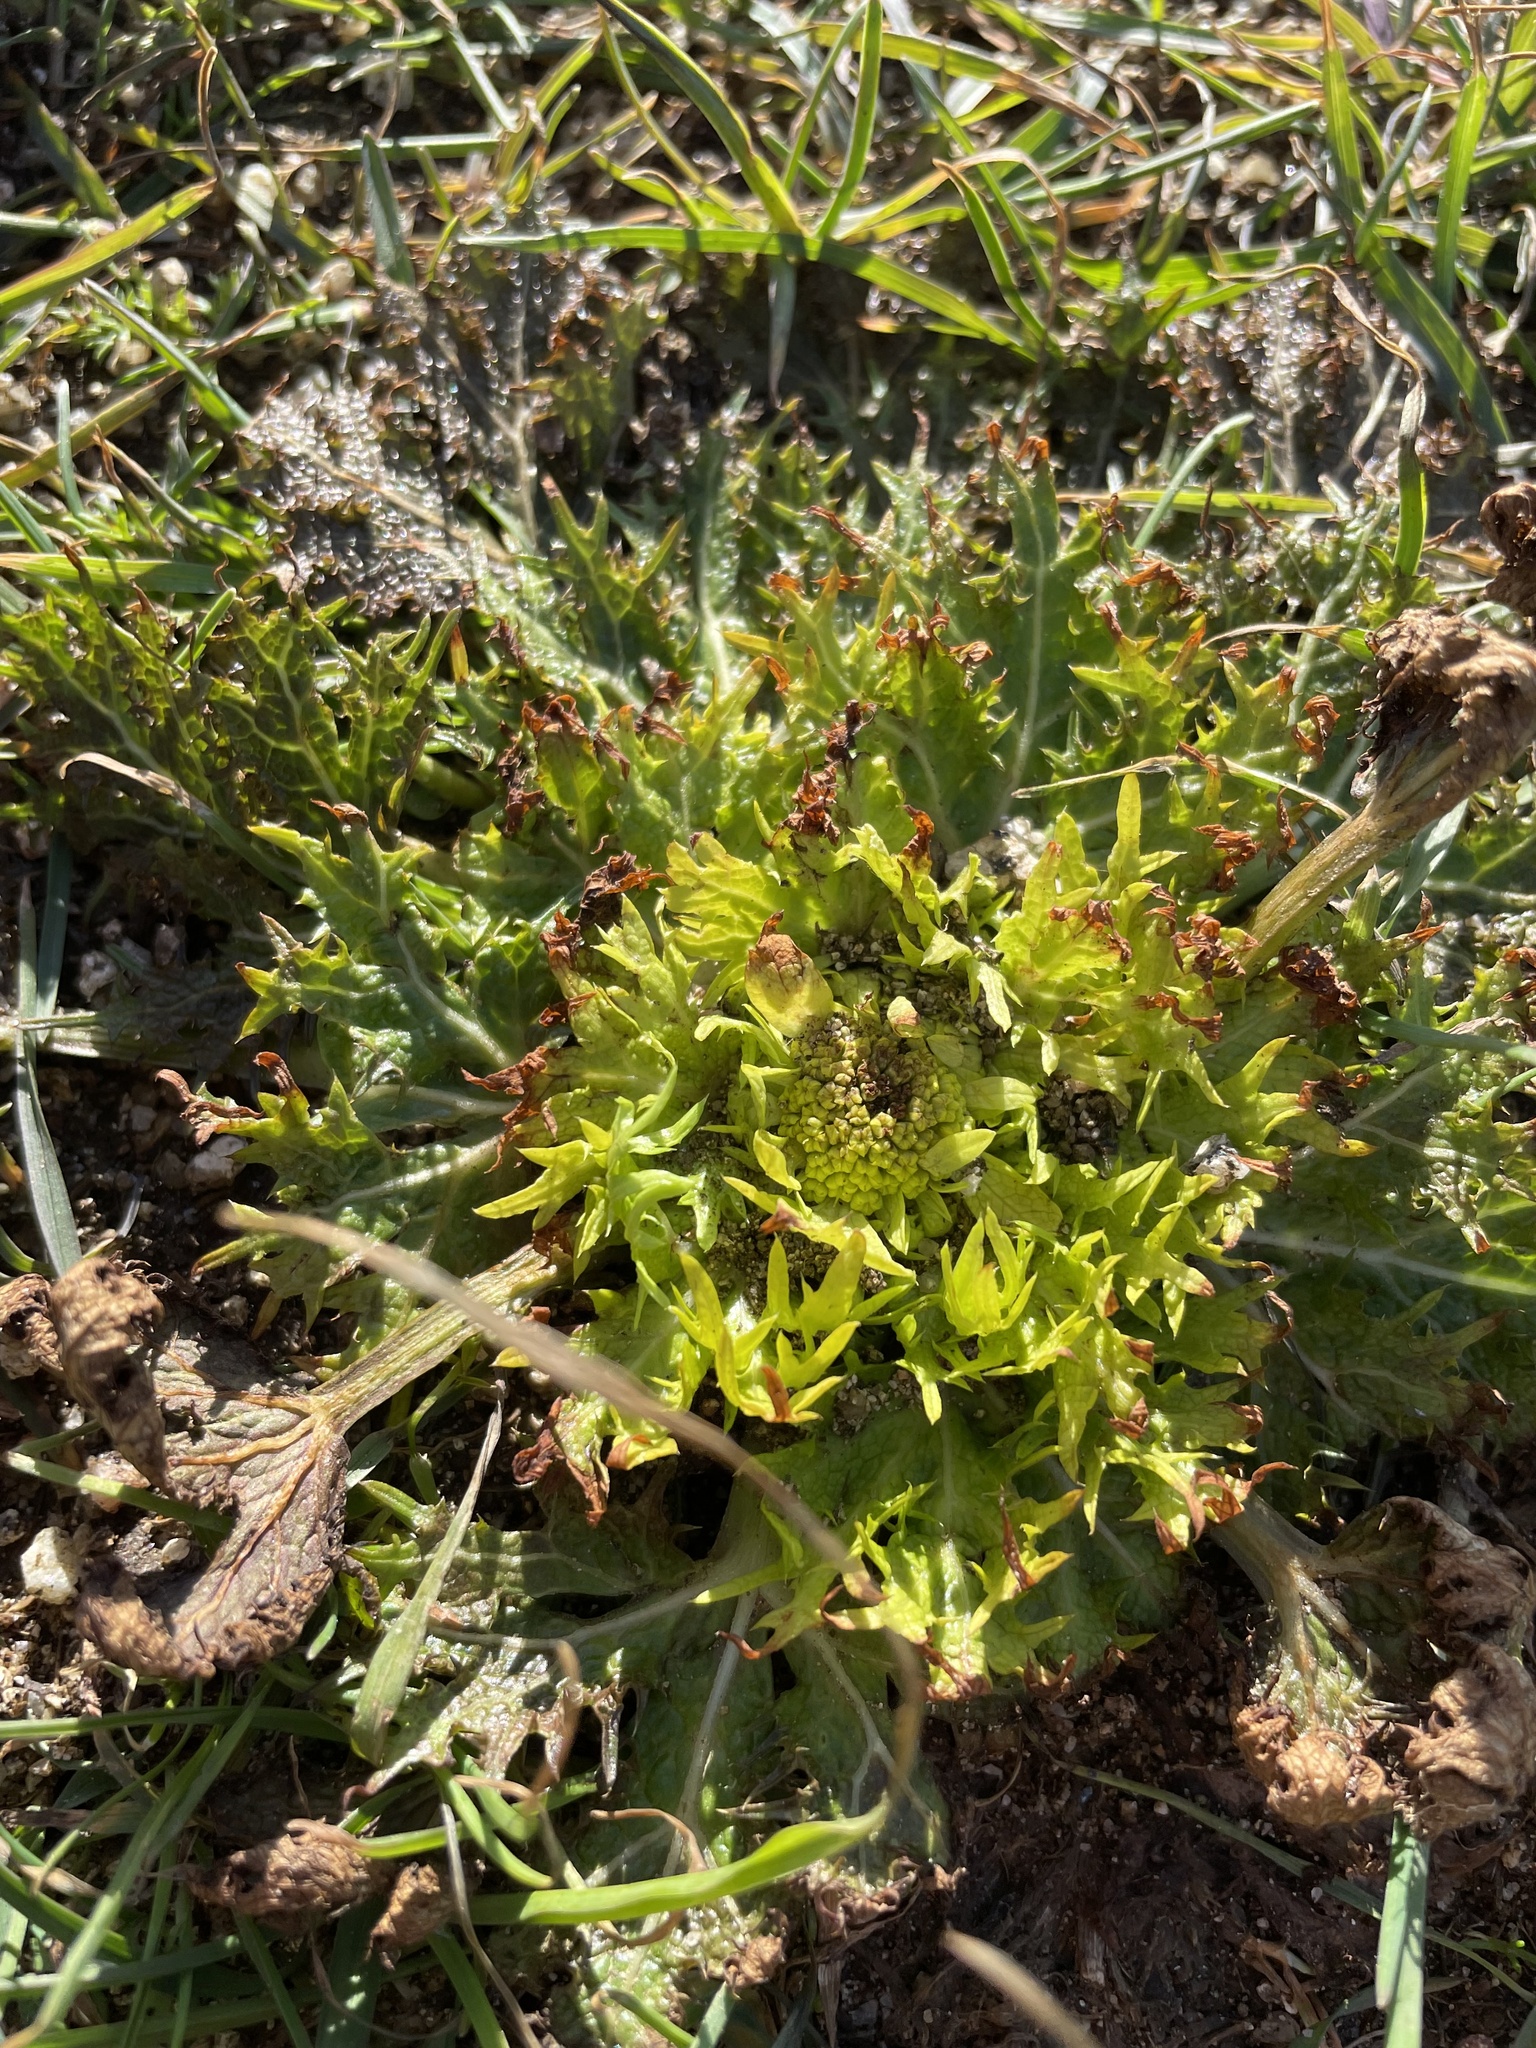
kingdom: Plantae
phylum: Tracheophyta
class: Magnoliopsida
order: Apiales
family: Apiaceae
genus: Sanicula
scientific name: Sanicula arctopoides
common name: Footsteps-of-spring
